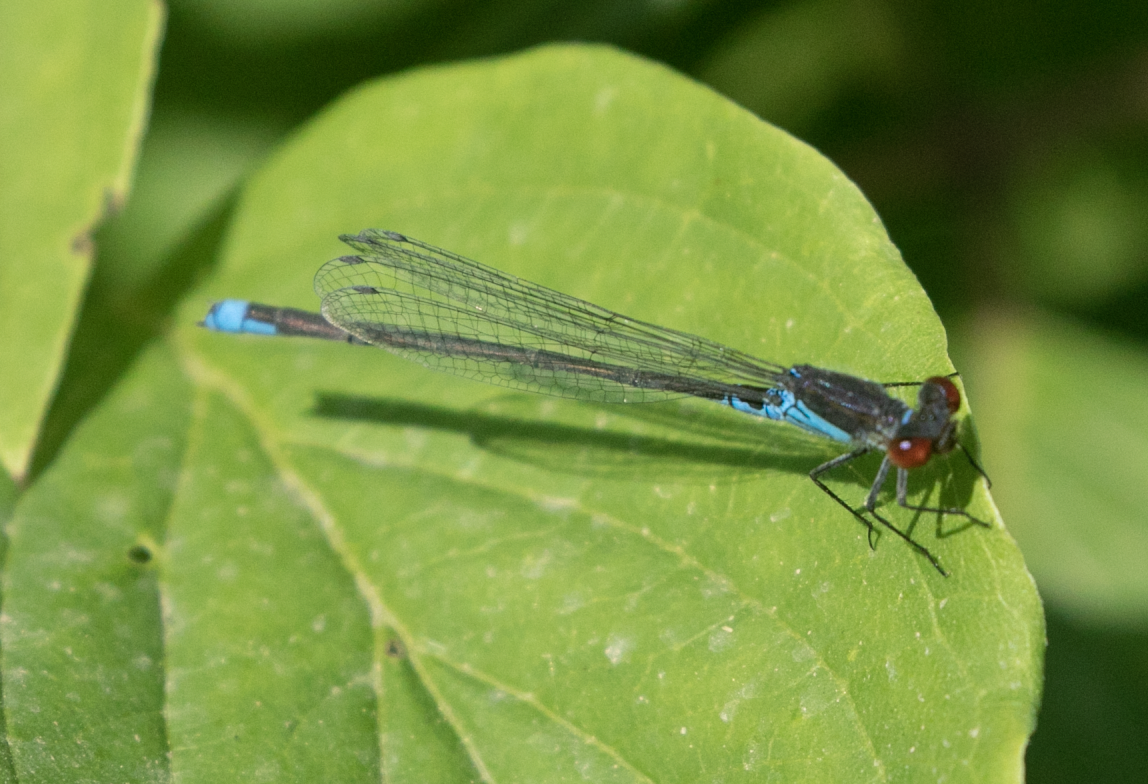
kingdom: Animalia
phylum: Arthropoda
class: Insecta
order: Odonata
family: Coenagrionidae
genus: Erythromma
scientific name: Erythromma viridulum
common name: Small red-eyed damselfly
